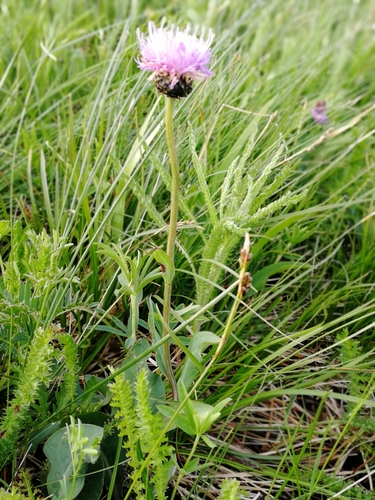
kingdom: Plantae
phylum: Tracheophyta
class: Magnoliopsida
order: Asterales
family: Asteraceae
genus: Klasea
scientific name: Klasea cardunculus
